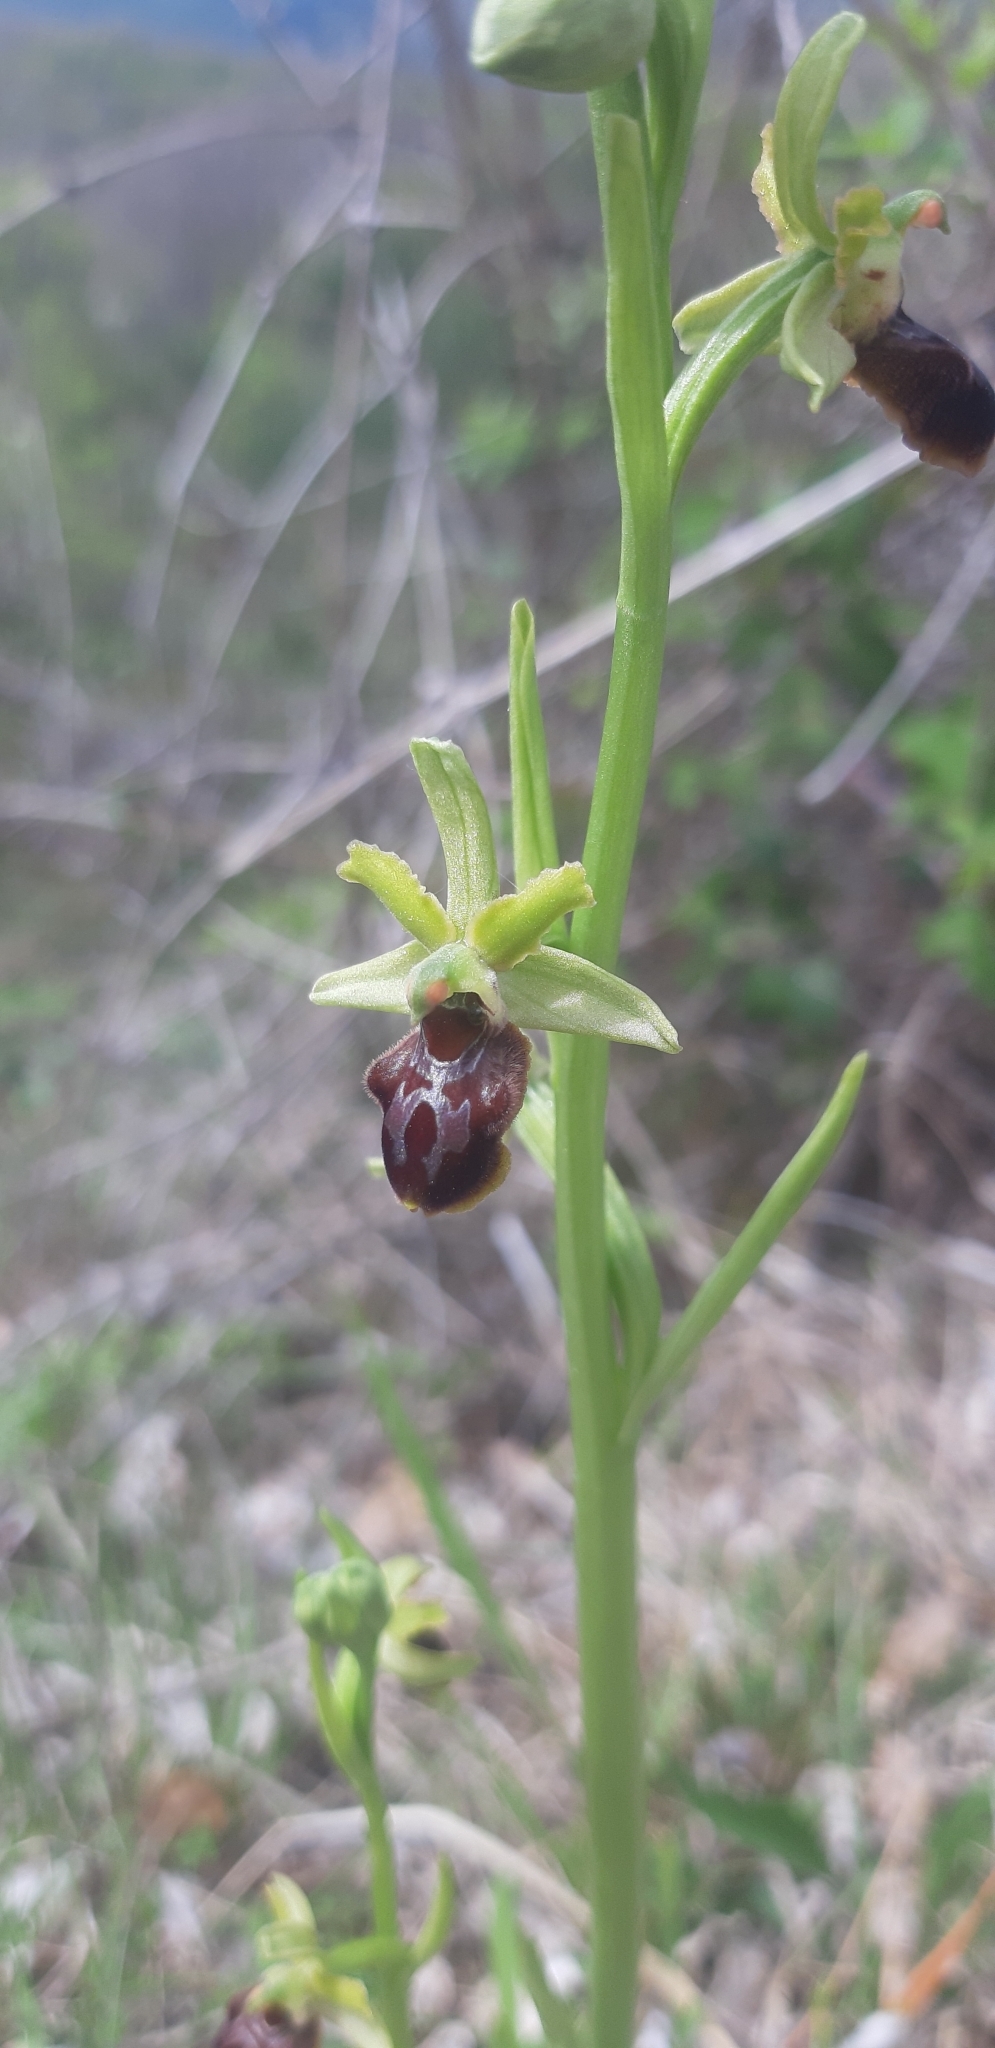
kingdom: Plantae
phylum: Tracheophyta
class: Liliopsida
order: Asparagales
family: Orchidaceae
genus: Ophrys
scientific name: Ophrys sphegodes
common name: Early spider-orchid
